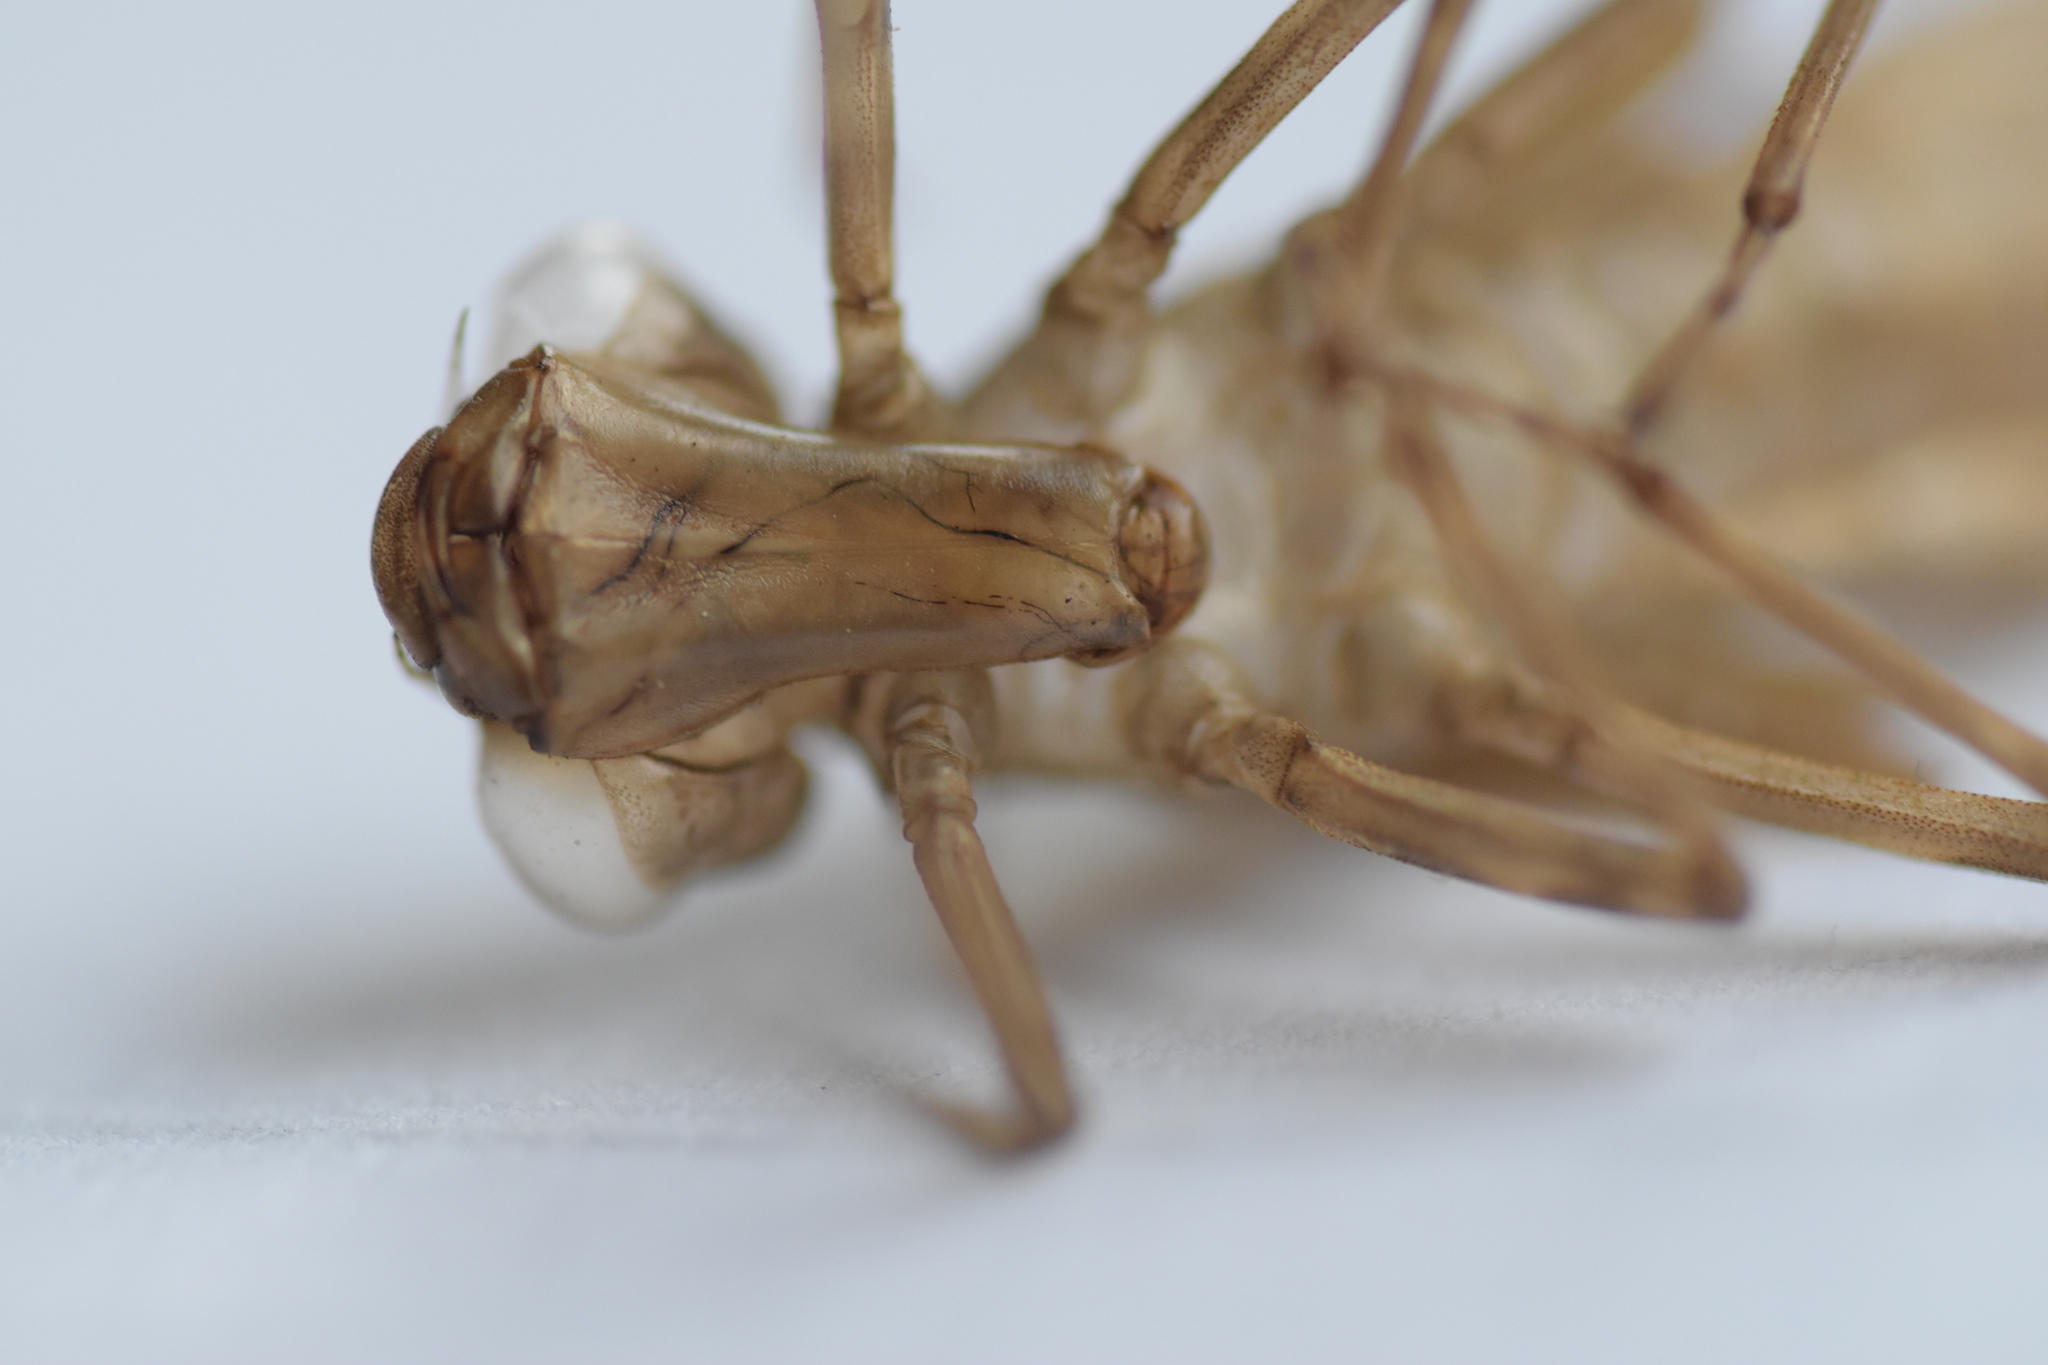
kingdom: Animalia
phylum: Arthropoda
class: Insecta
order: Odonata
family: Aeshnidae
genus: Aeshna
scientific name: Aeshna cyanea
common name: Southern hawker
